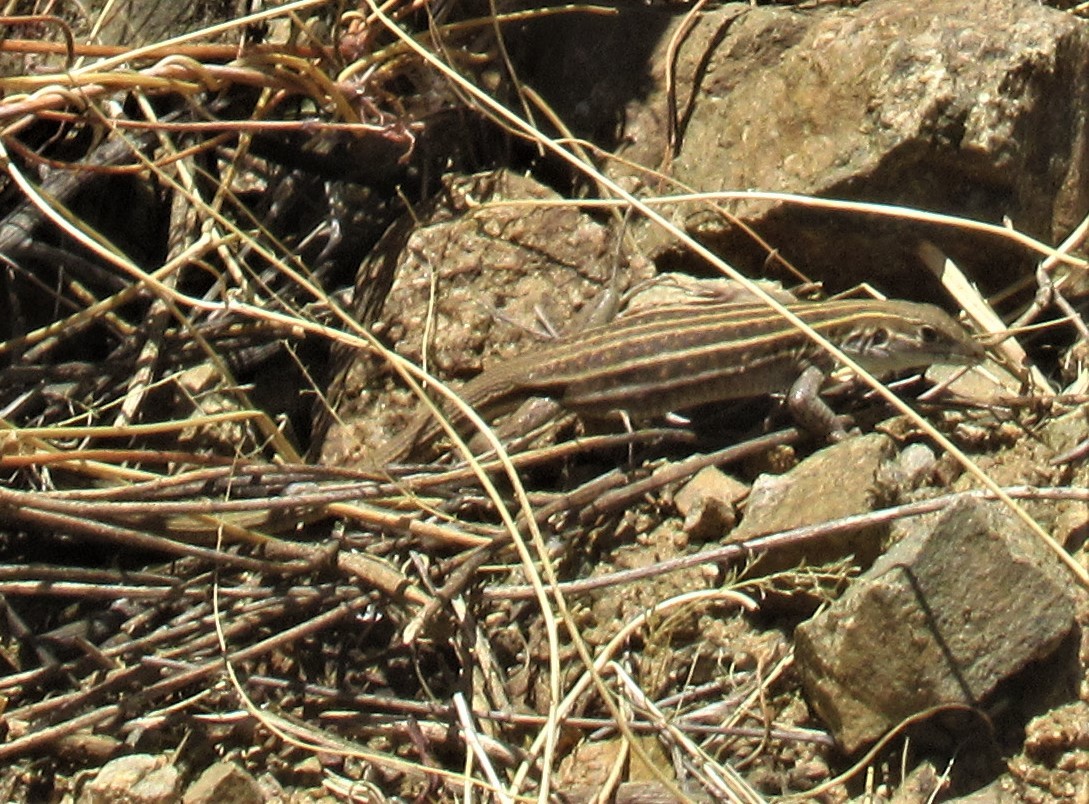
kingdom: Animalia
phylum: Chordata
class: Squamata
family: Teiidae
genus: Aspidoscelis
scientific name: Aspidoscelis sonorae
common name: Sonoran spotted whiptail
